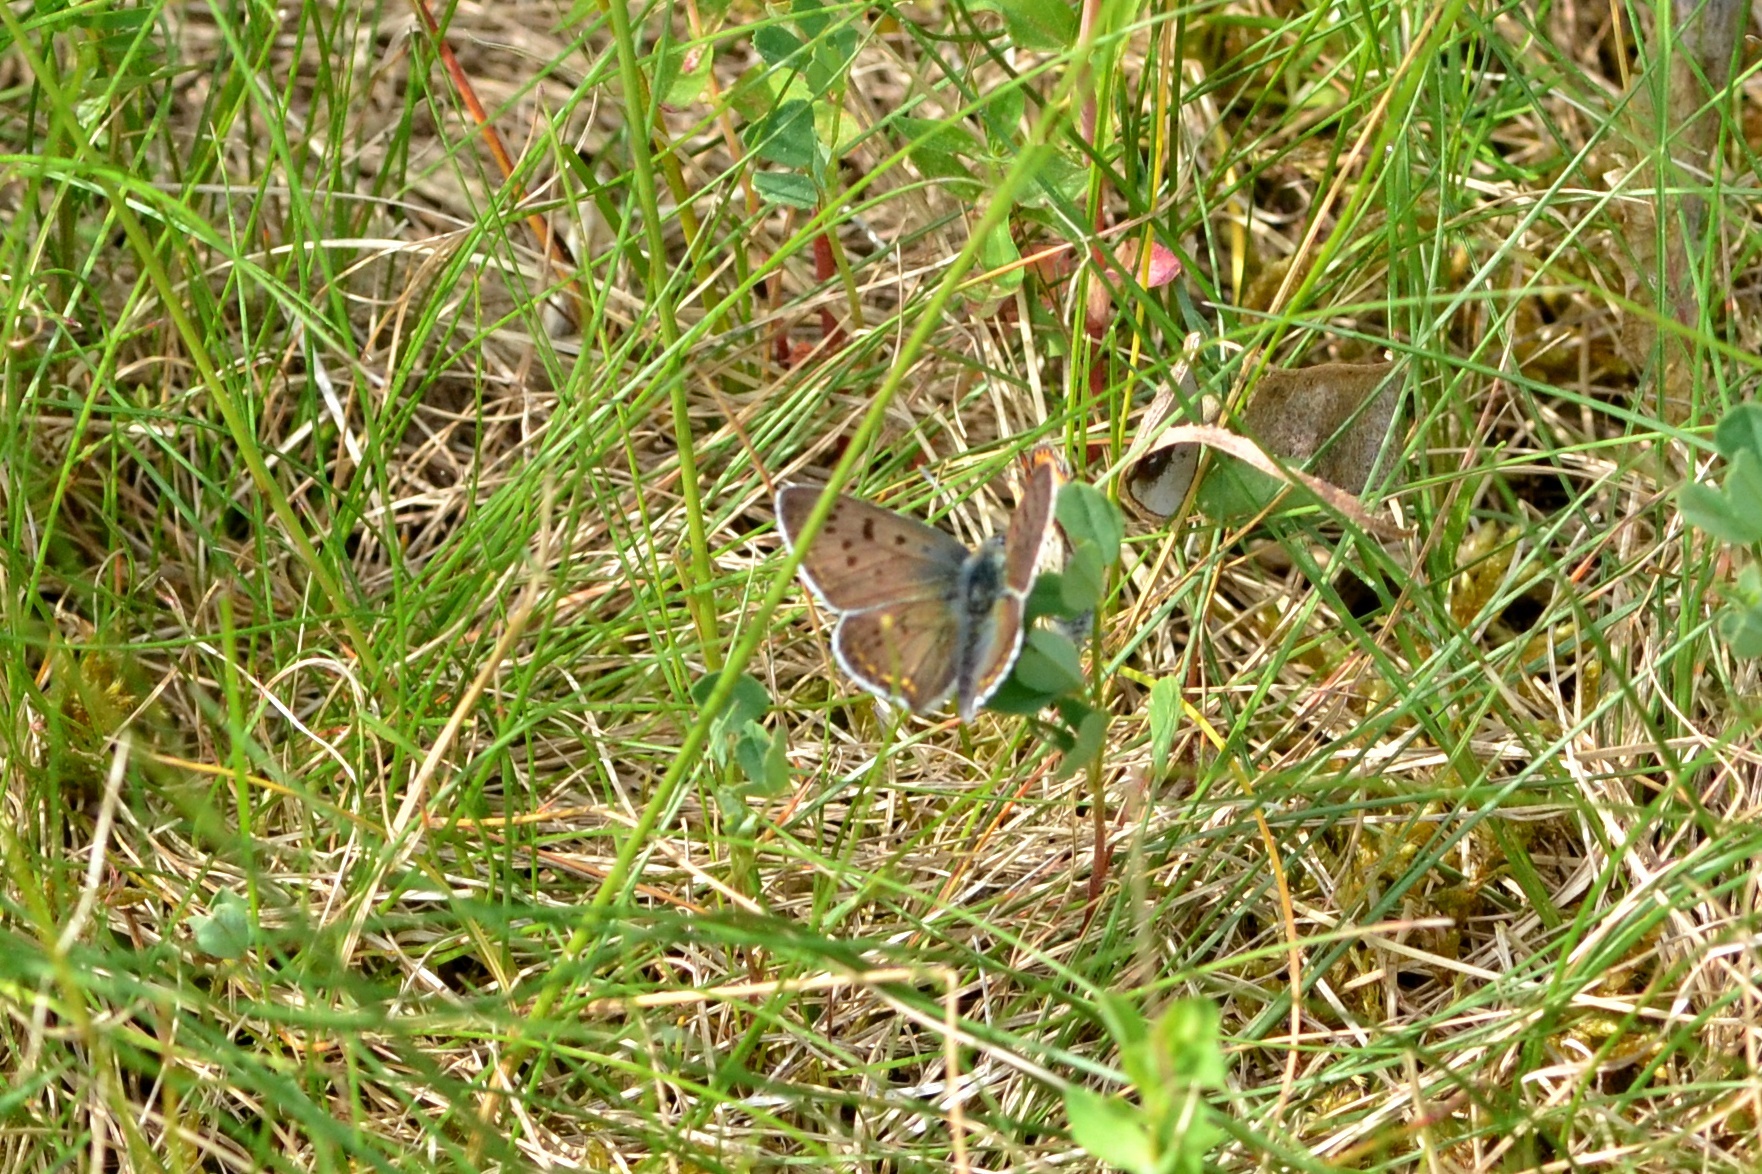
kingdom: Animalia
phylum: Arthropoda
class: Insecta
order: Lepidoptera
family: Lycaenidae
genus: Loweia
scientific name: Loweia tityrus
